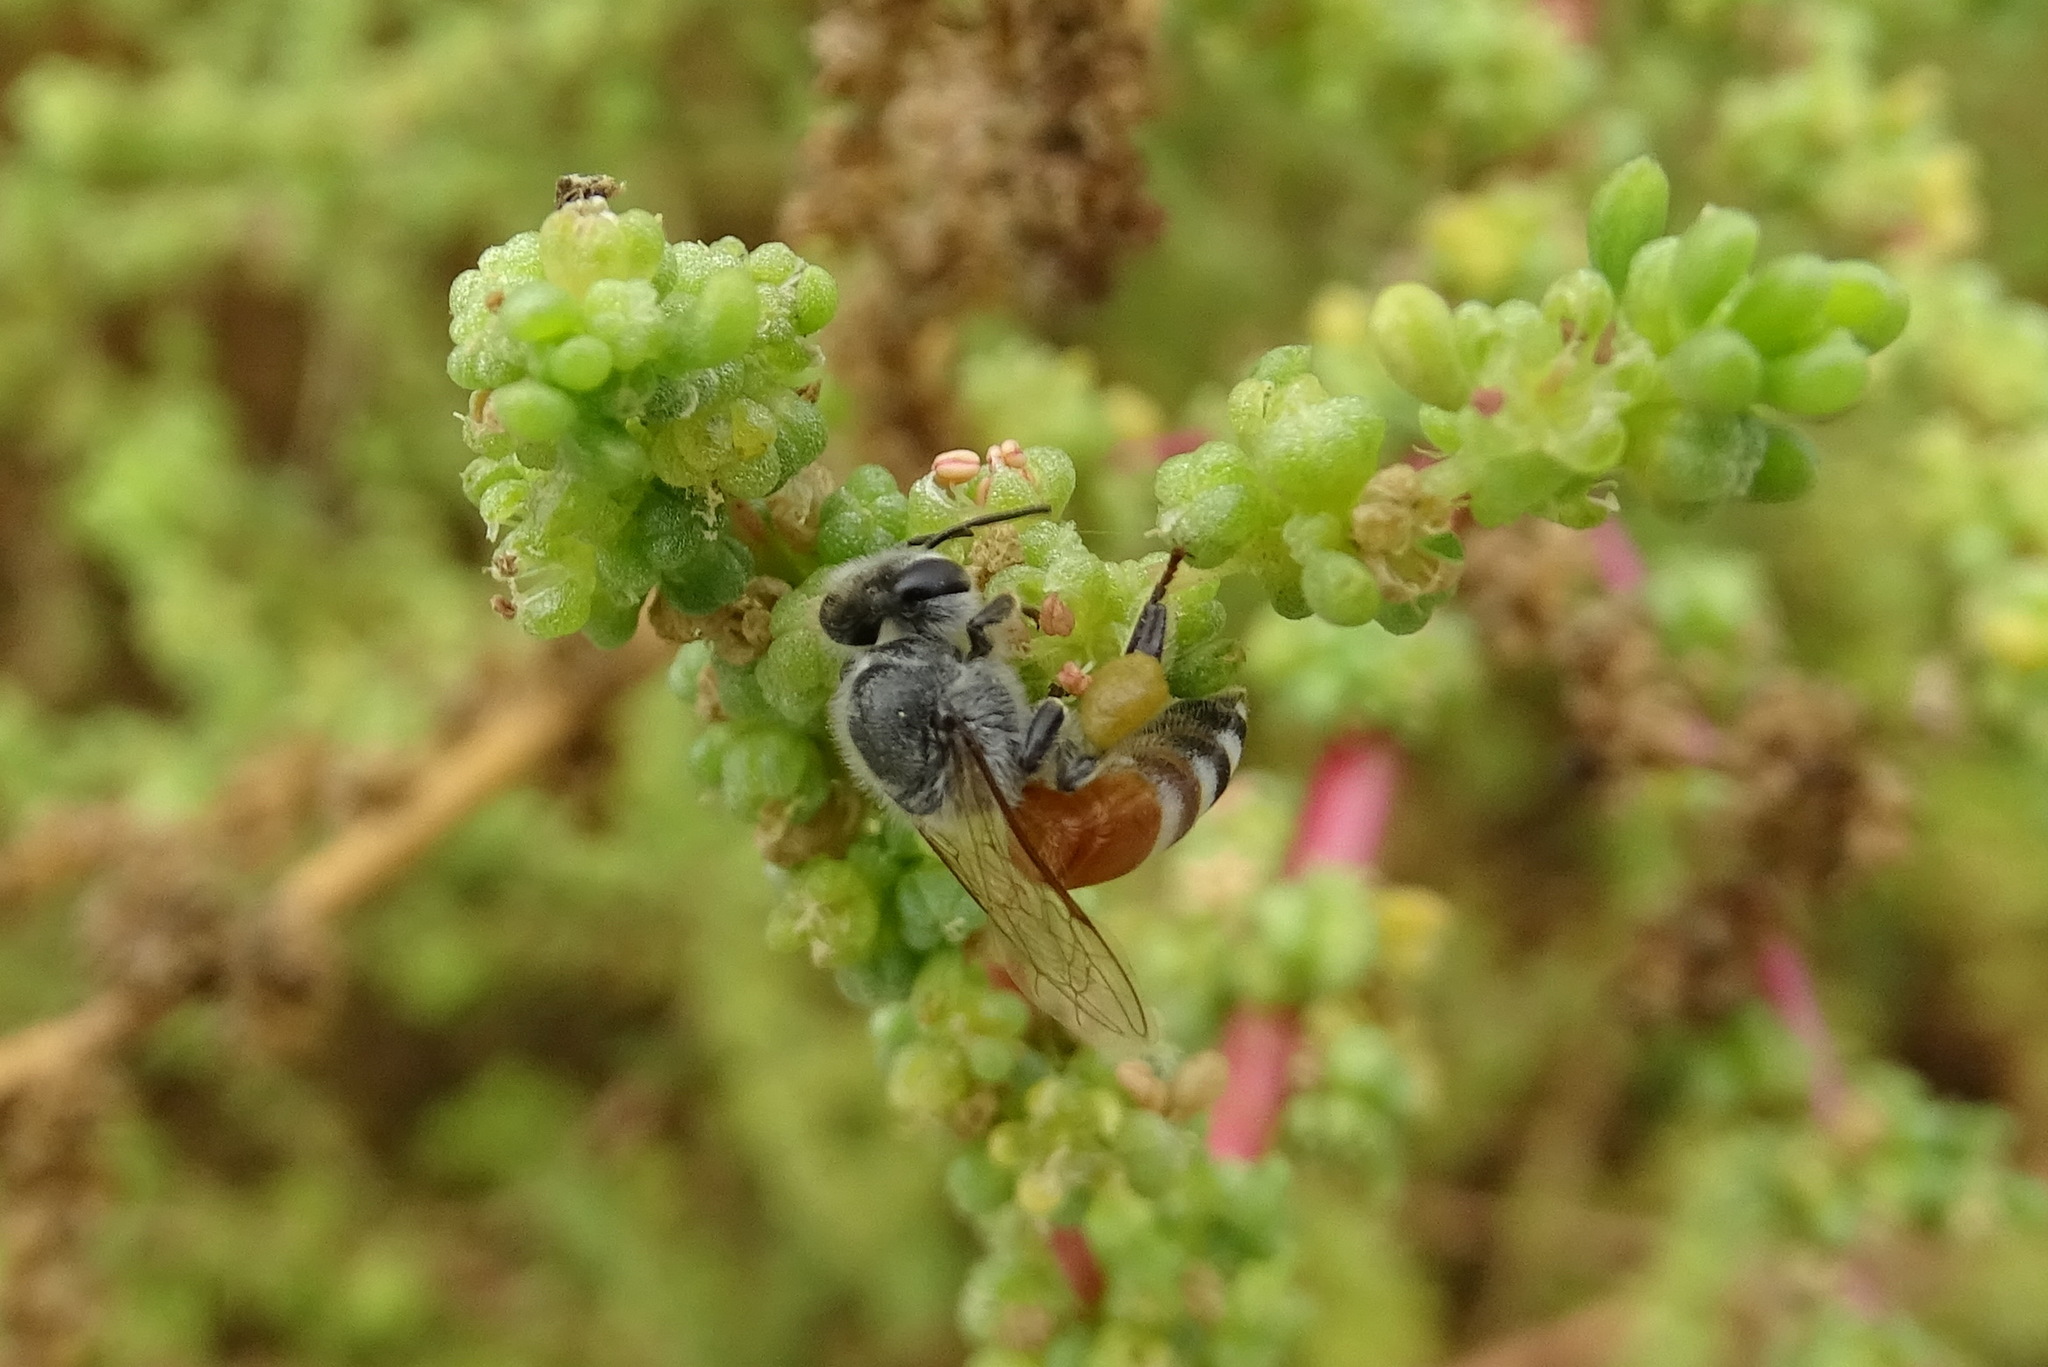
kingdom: Animalia
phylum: Arthropoda
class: Insecta
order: Hymenoptera
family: Apidae
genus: Apis
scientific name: Apis florea
